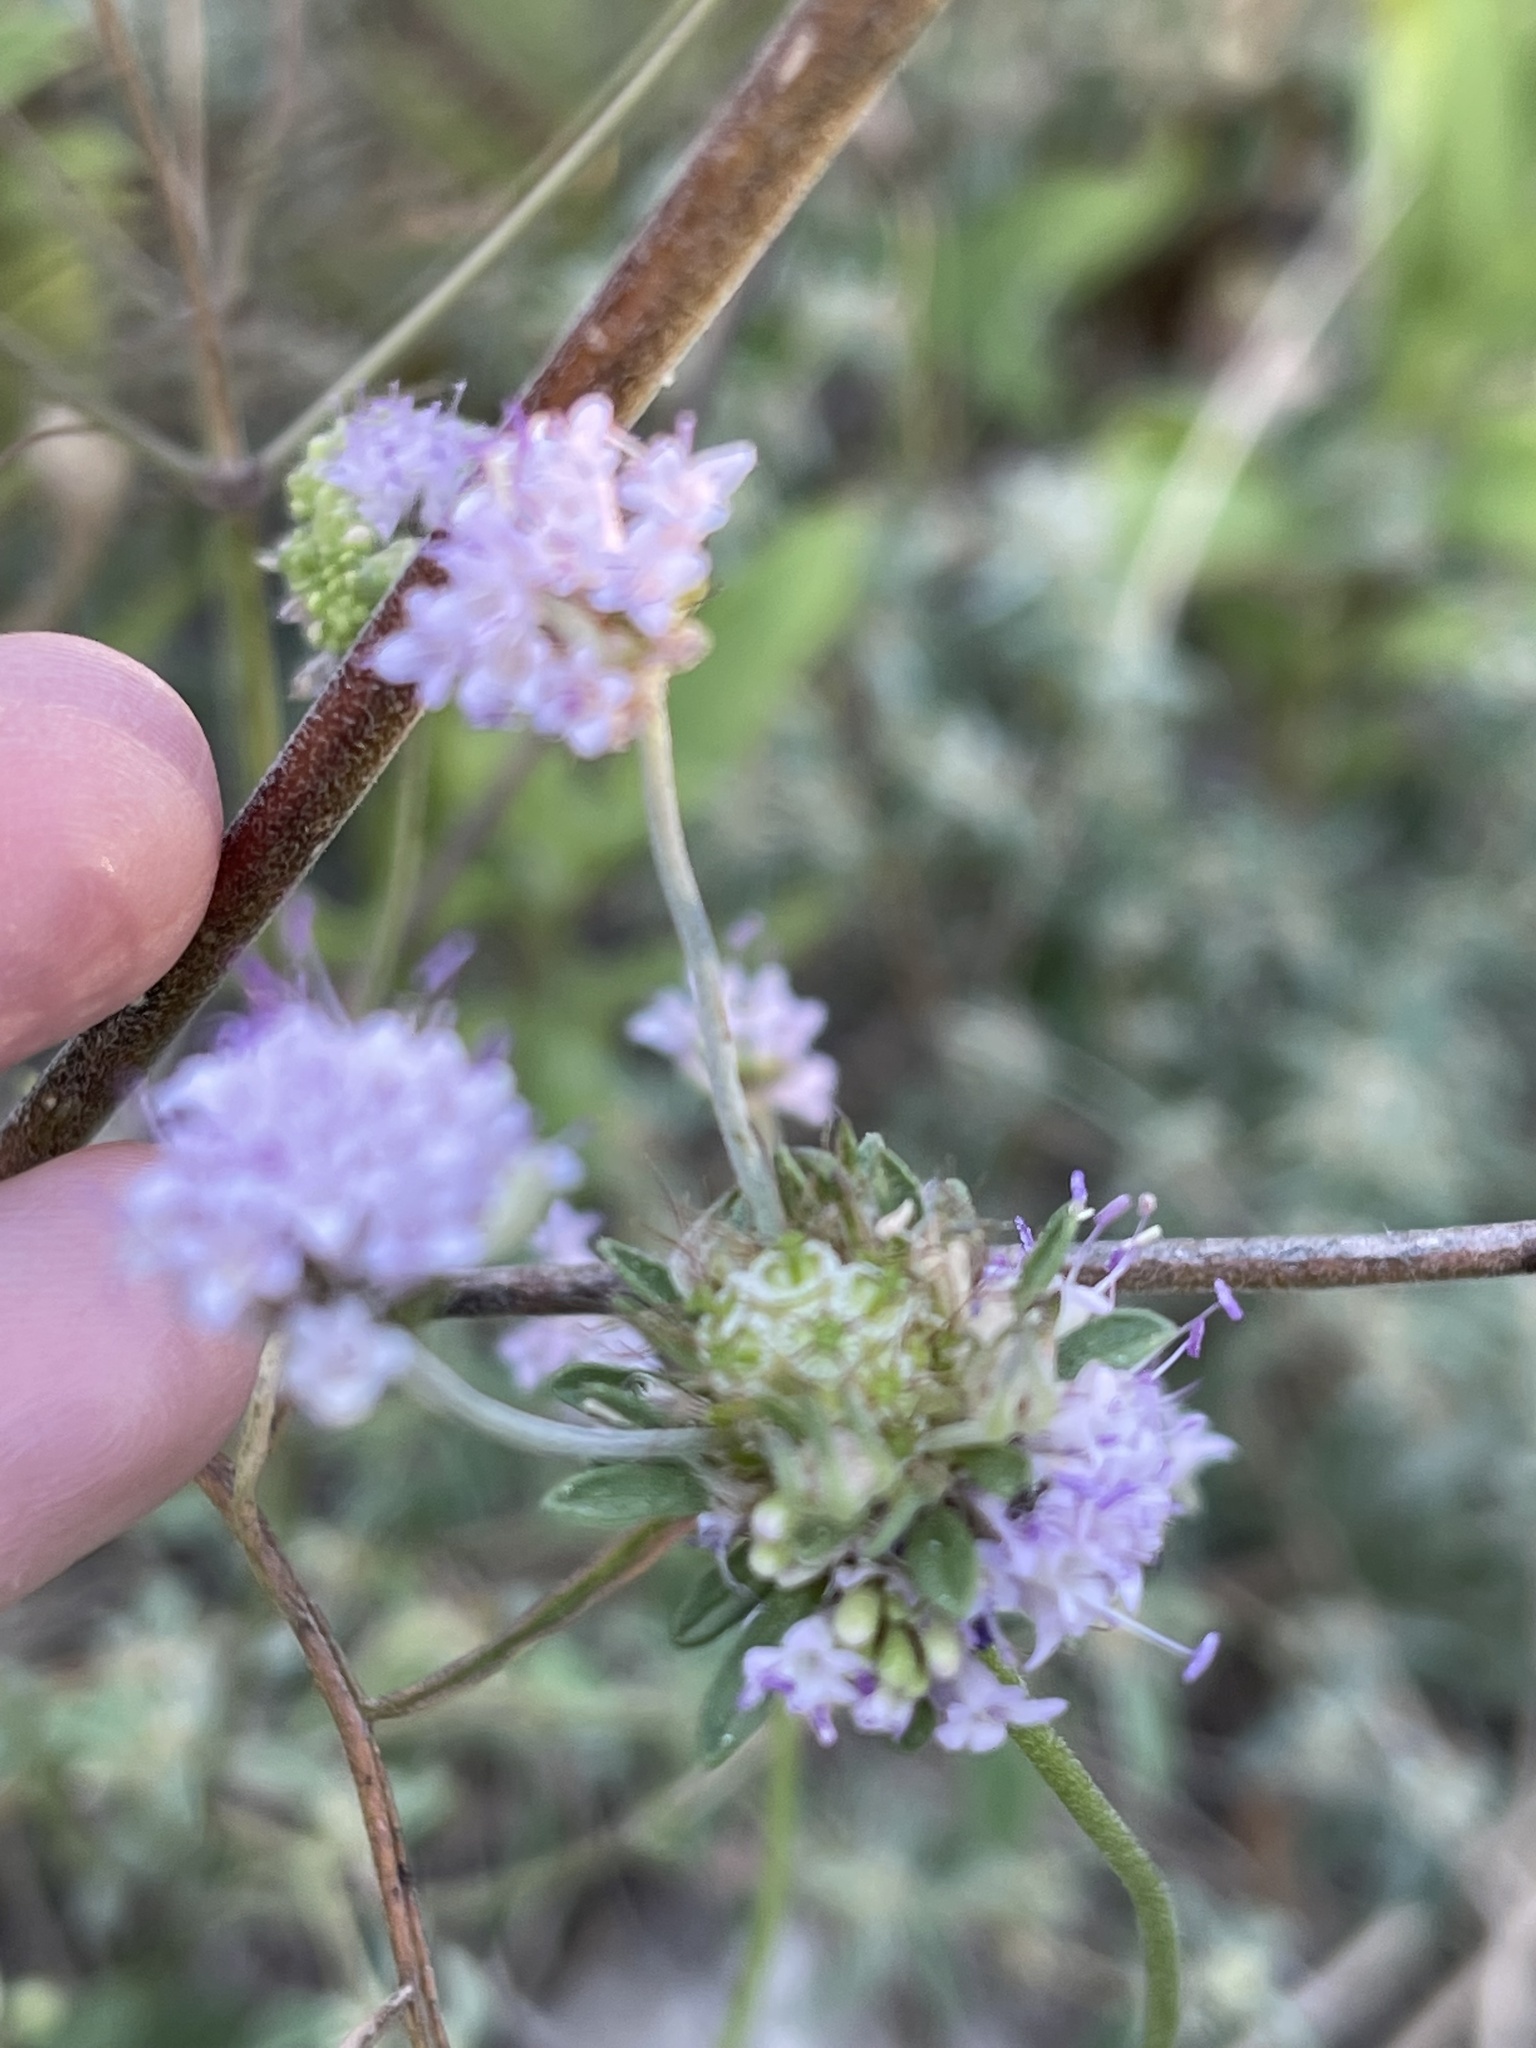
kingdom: Plantae
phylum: Tracheophyta
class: Magnoliopsida
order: Dipsacales
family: Caprifoliaceae
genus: Sixalix
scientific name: Sixalix atropurpurea
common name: Sweet scabious
